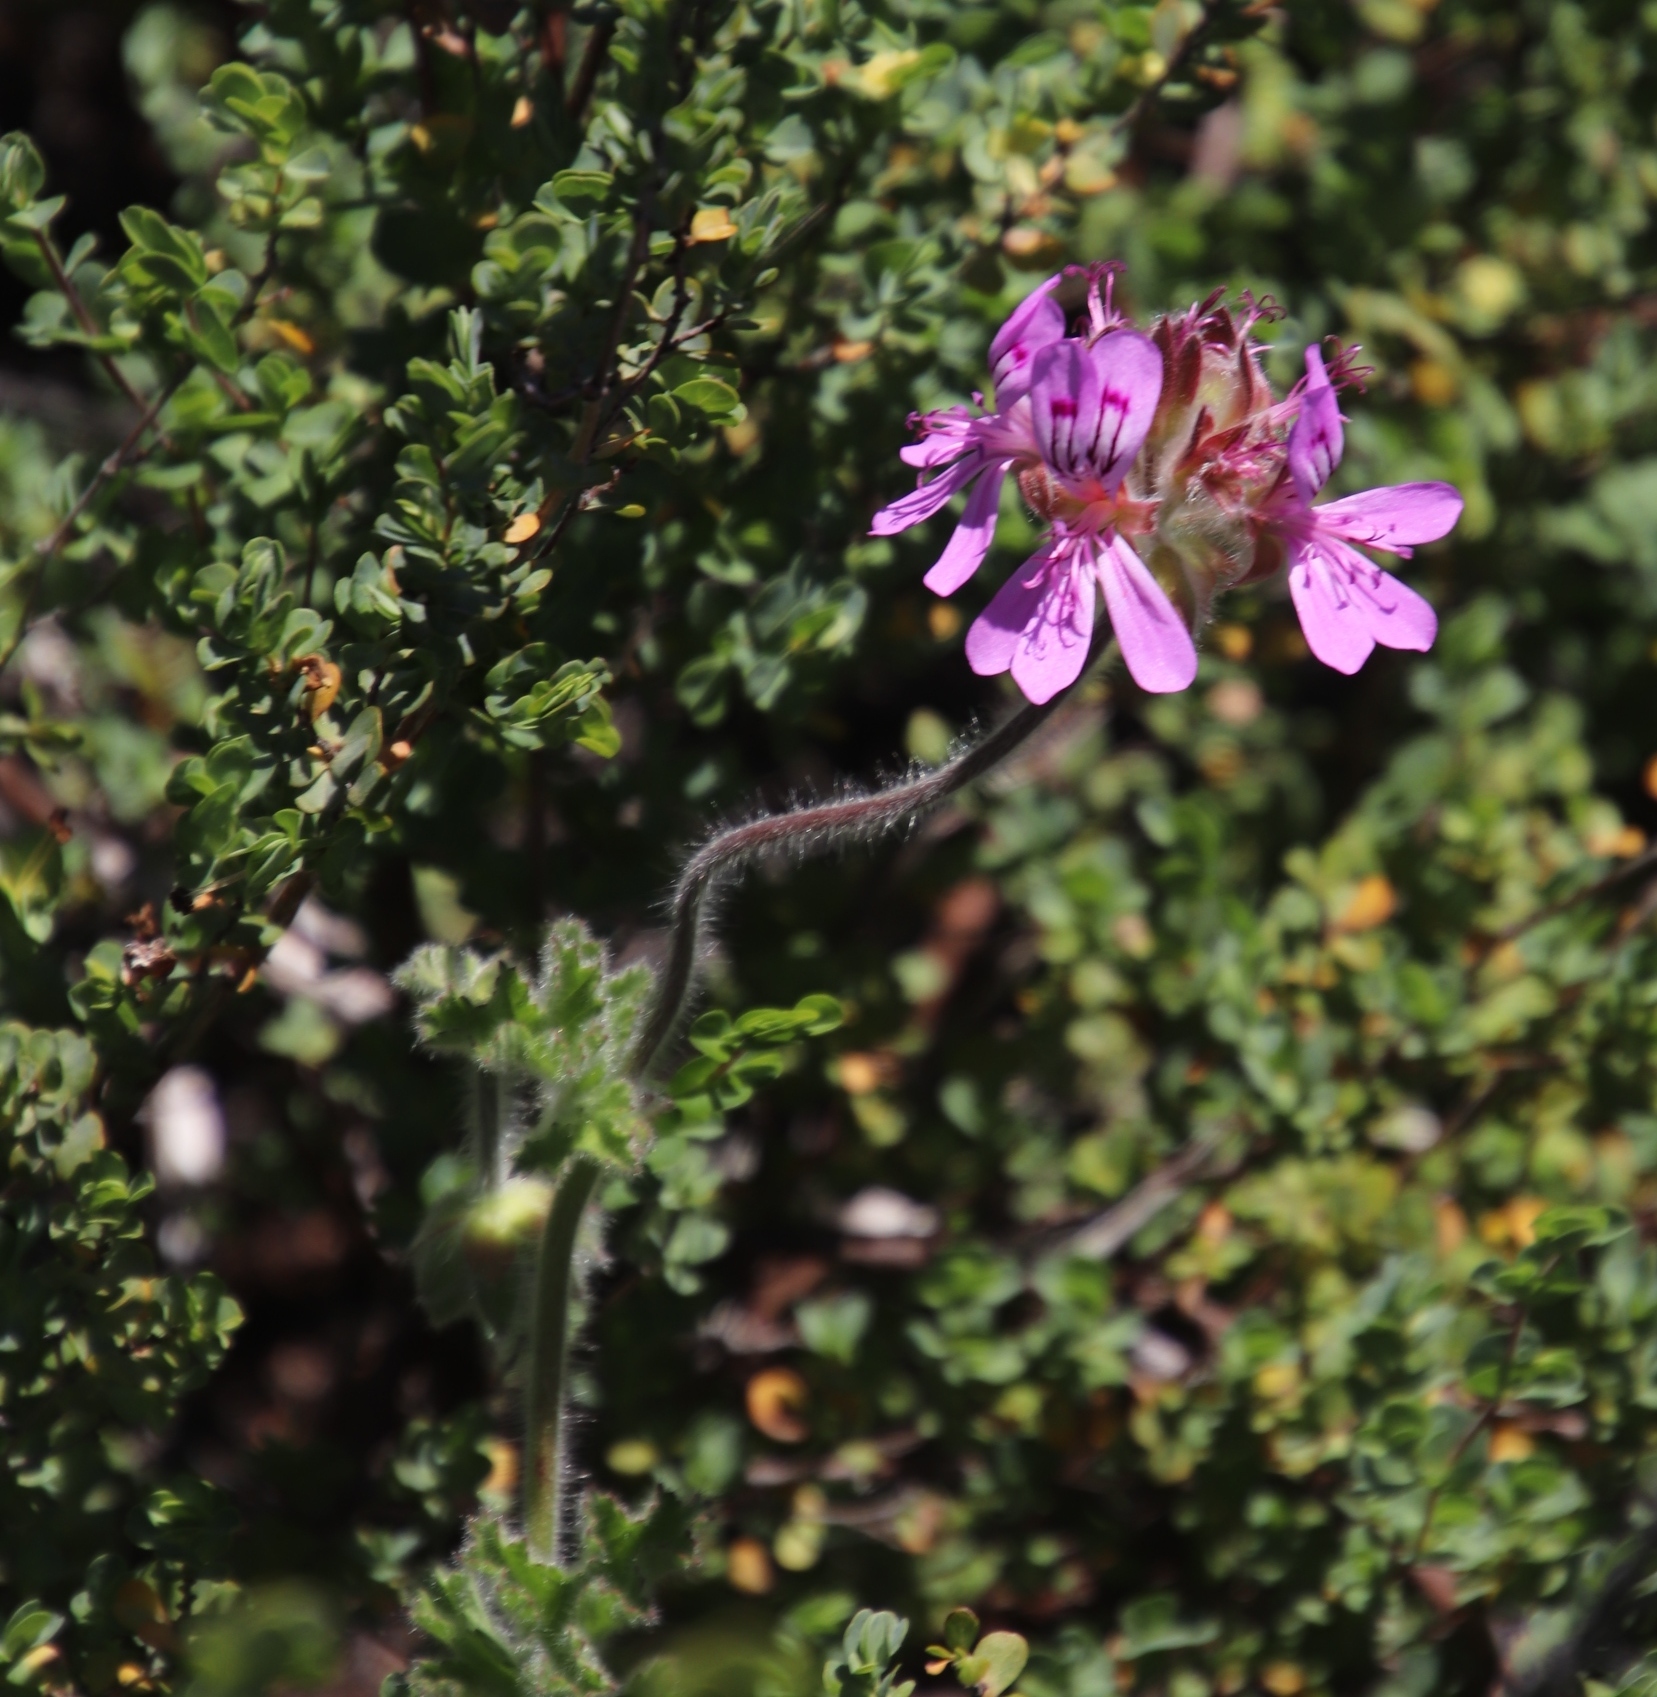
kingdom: Plantae
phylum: Tracheophyta
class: Magnoliopsida
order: Geraniales
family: Geraniaceae
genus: Pelargonium
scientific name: Pelargonium capitatum
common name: Rose scented geranium
